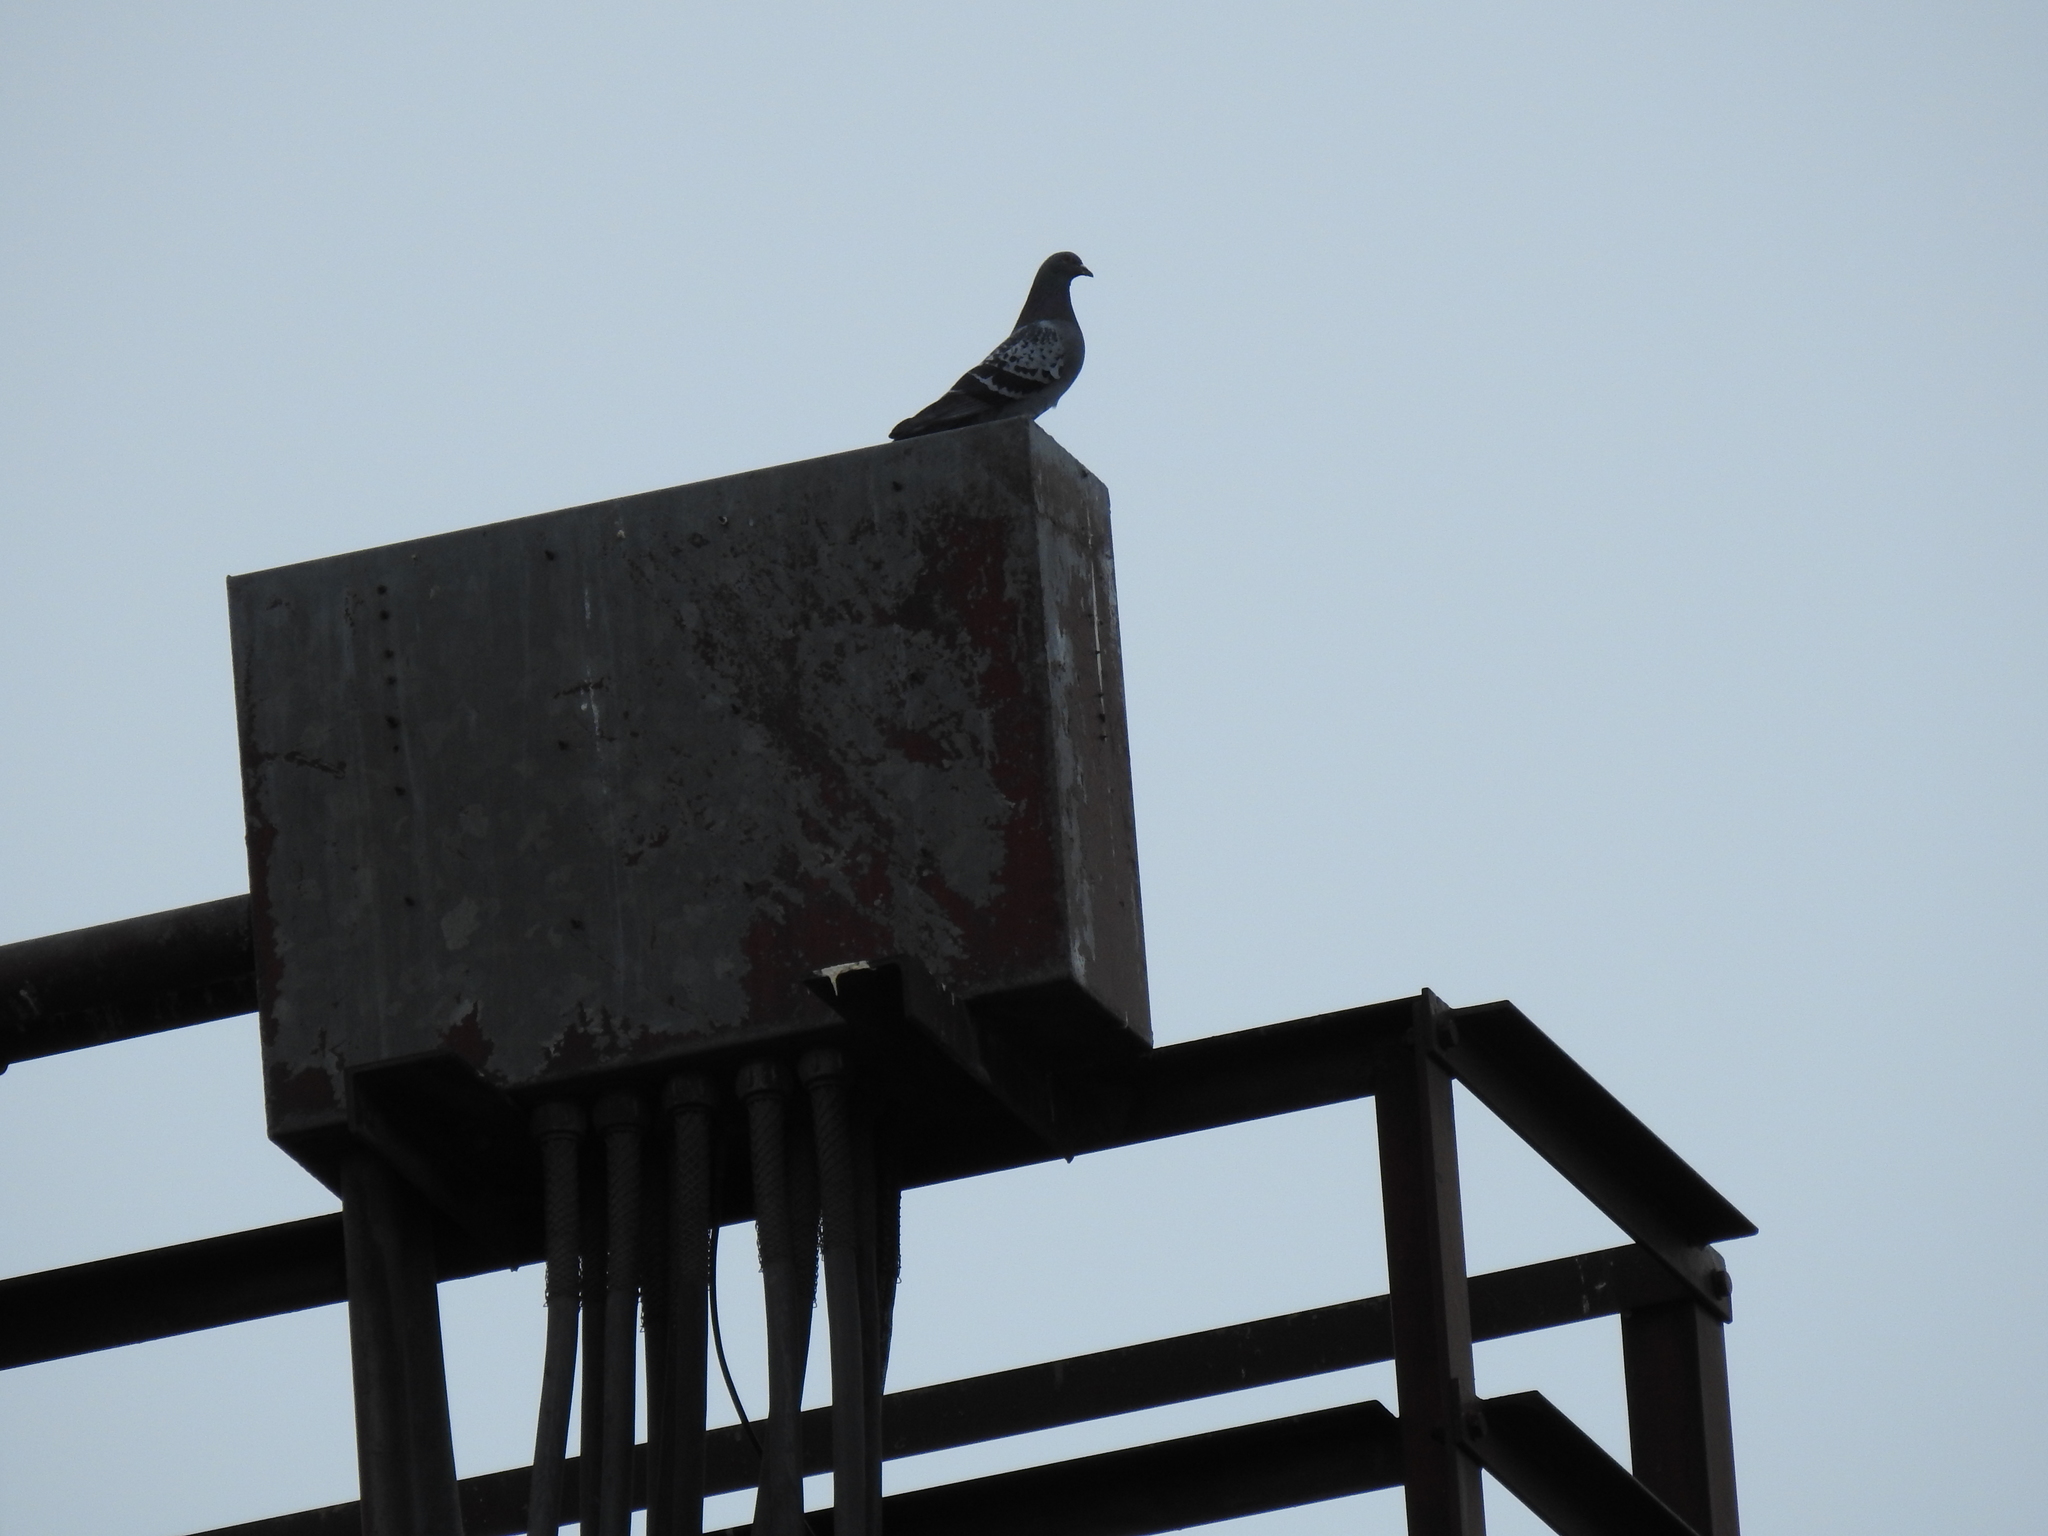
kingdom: Animalia
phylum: Chordata
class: Aves
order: Columbiformes
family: Columbidae
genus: Columba
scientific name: Columba livia
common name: Rock pigeon
